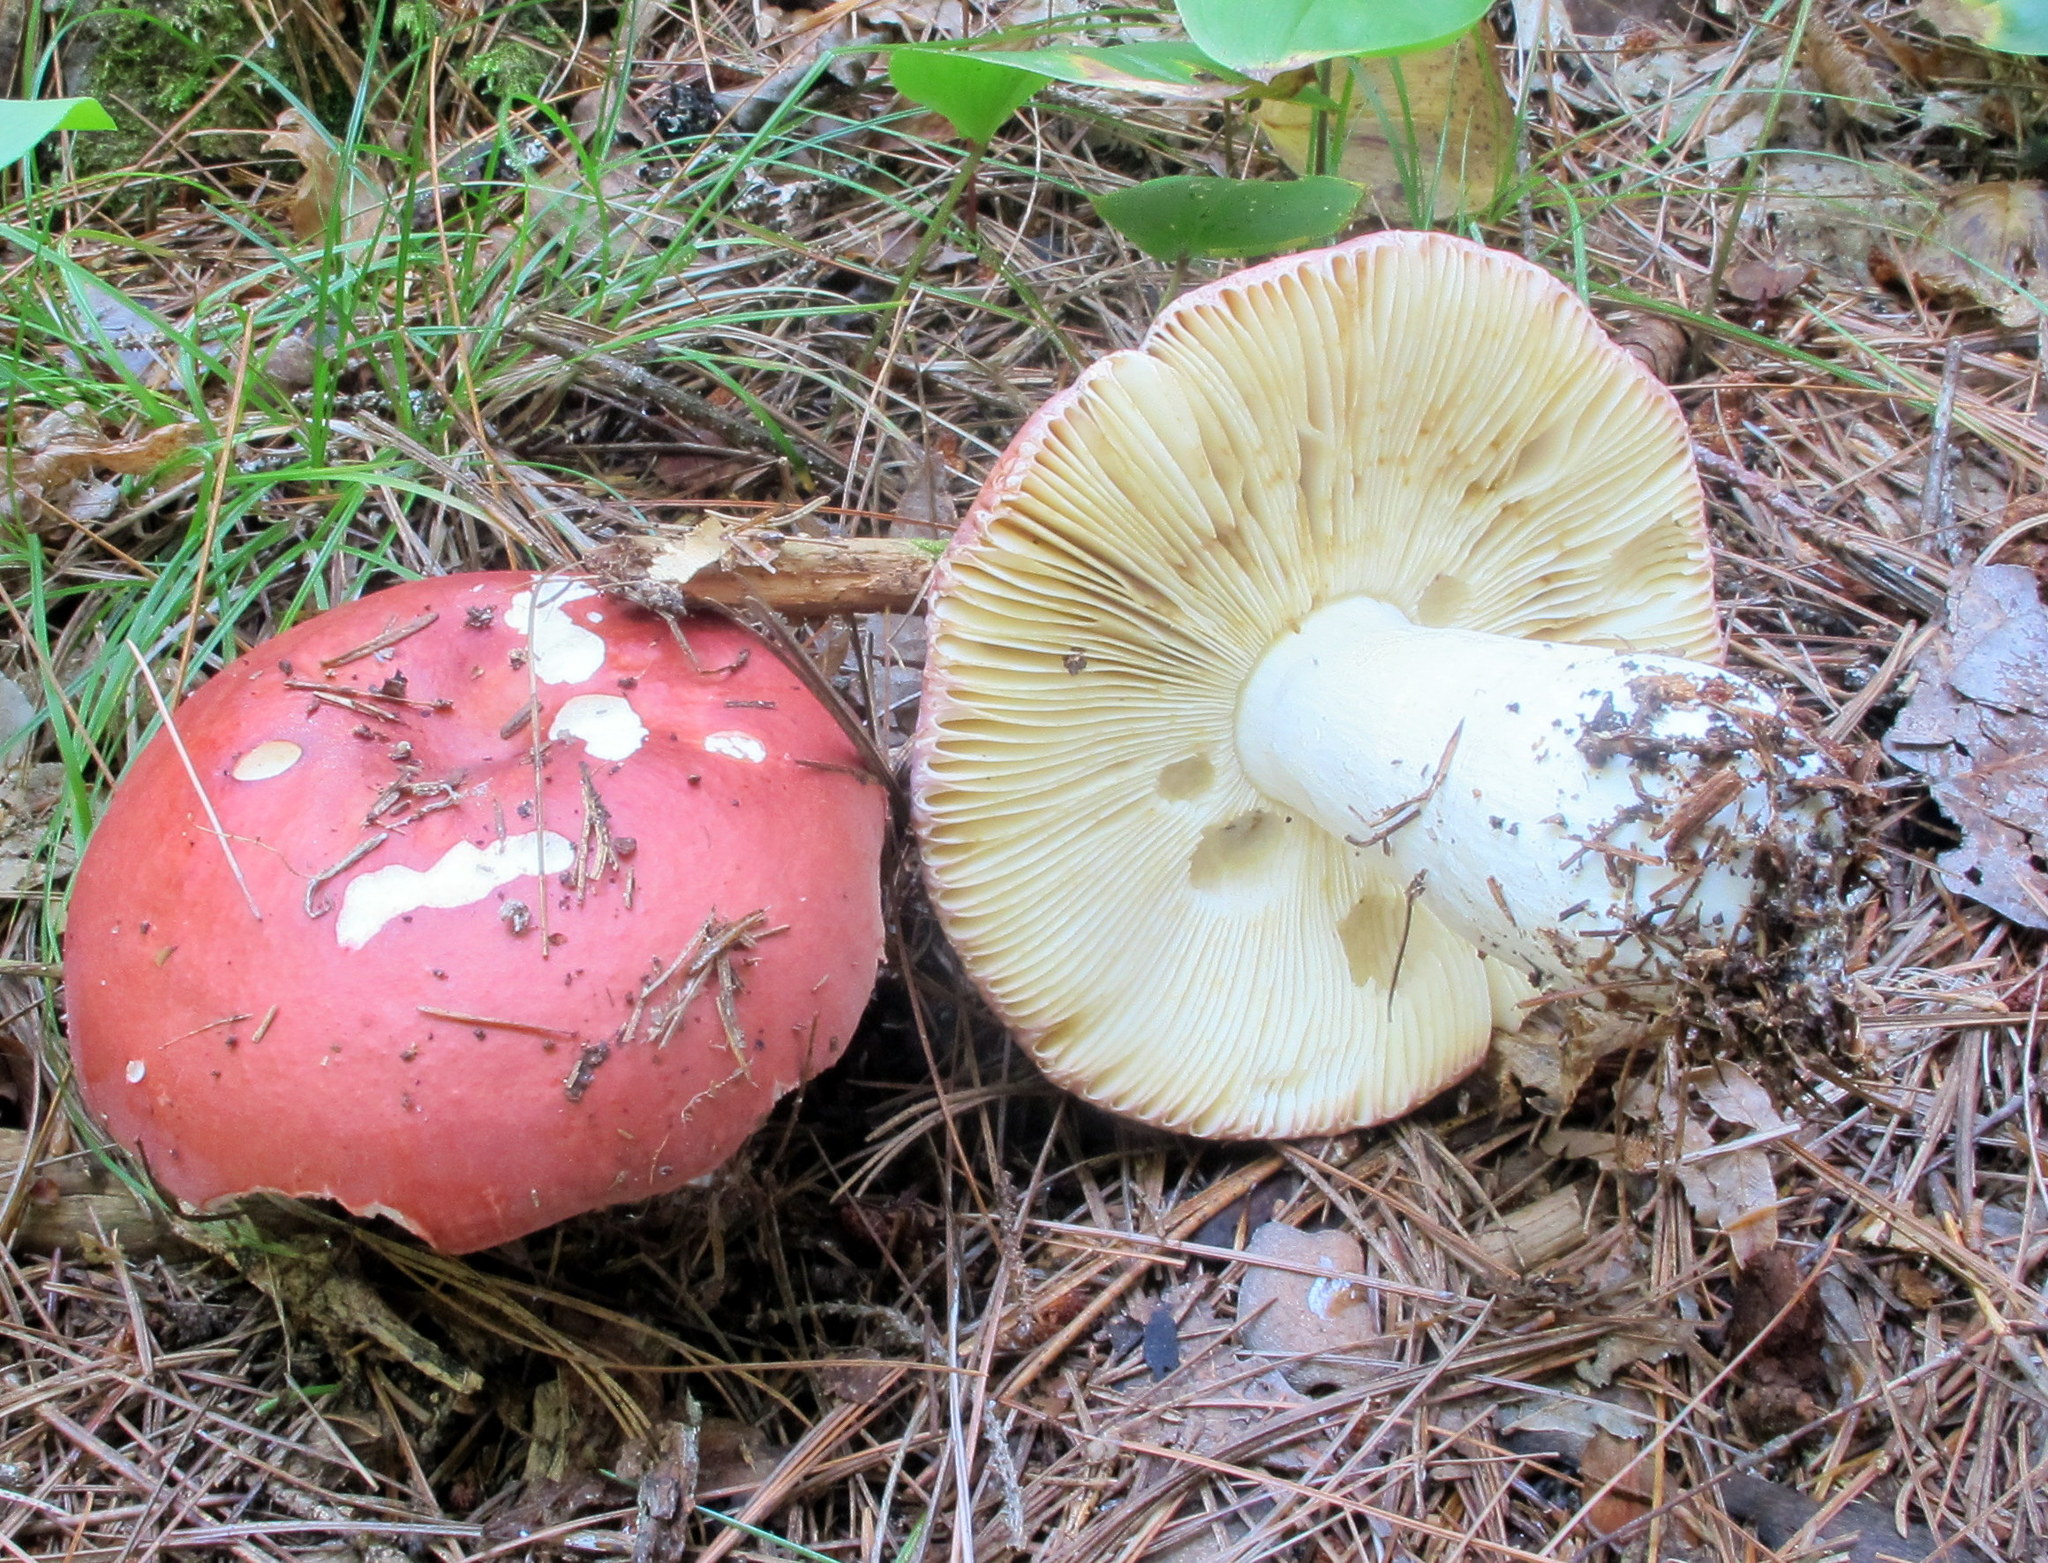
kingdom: Fungi
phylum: Basidiomycota
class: Agaricomycetes
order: Russulales
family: Russulaceae
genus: Russula
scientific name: Russula paludosa
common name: Hintapink
